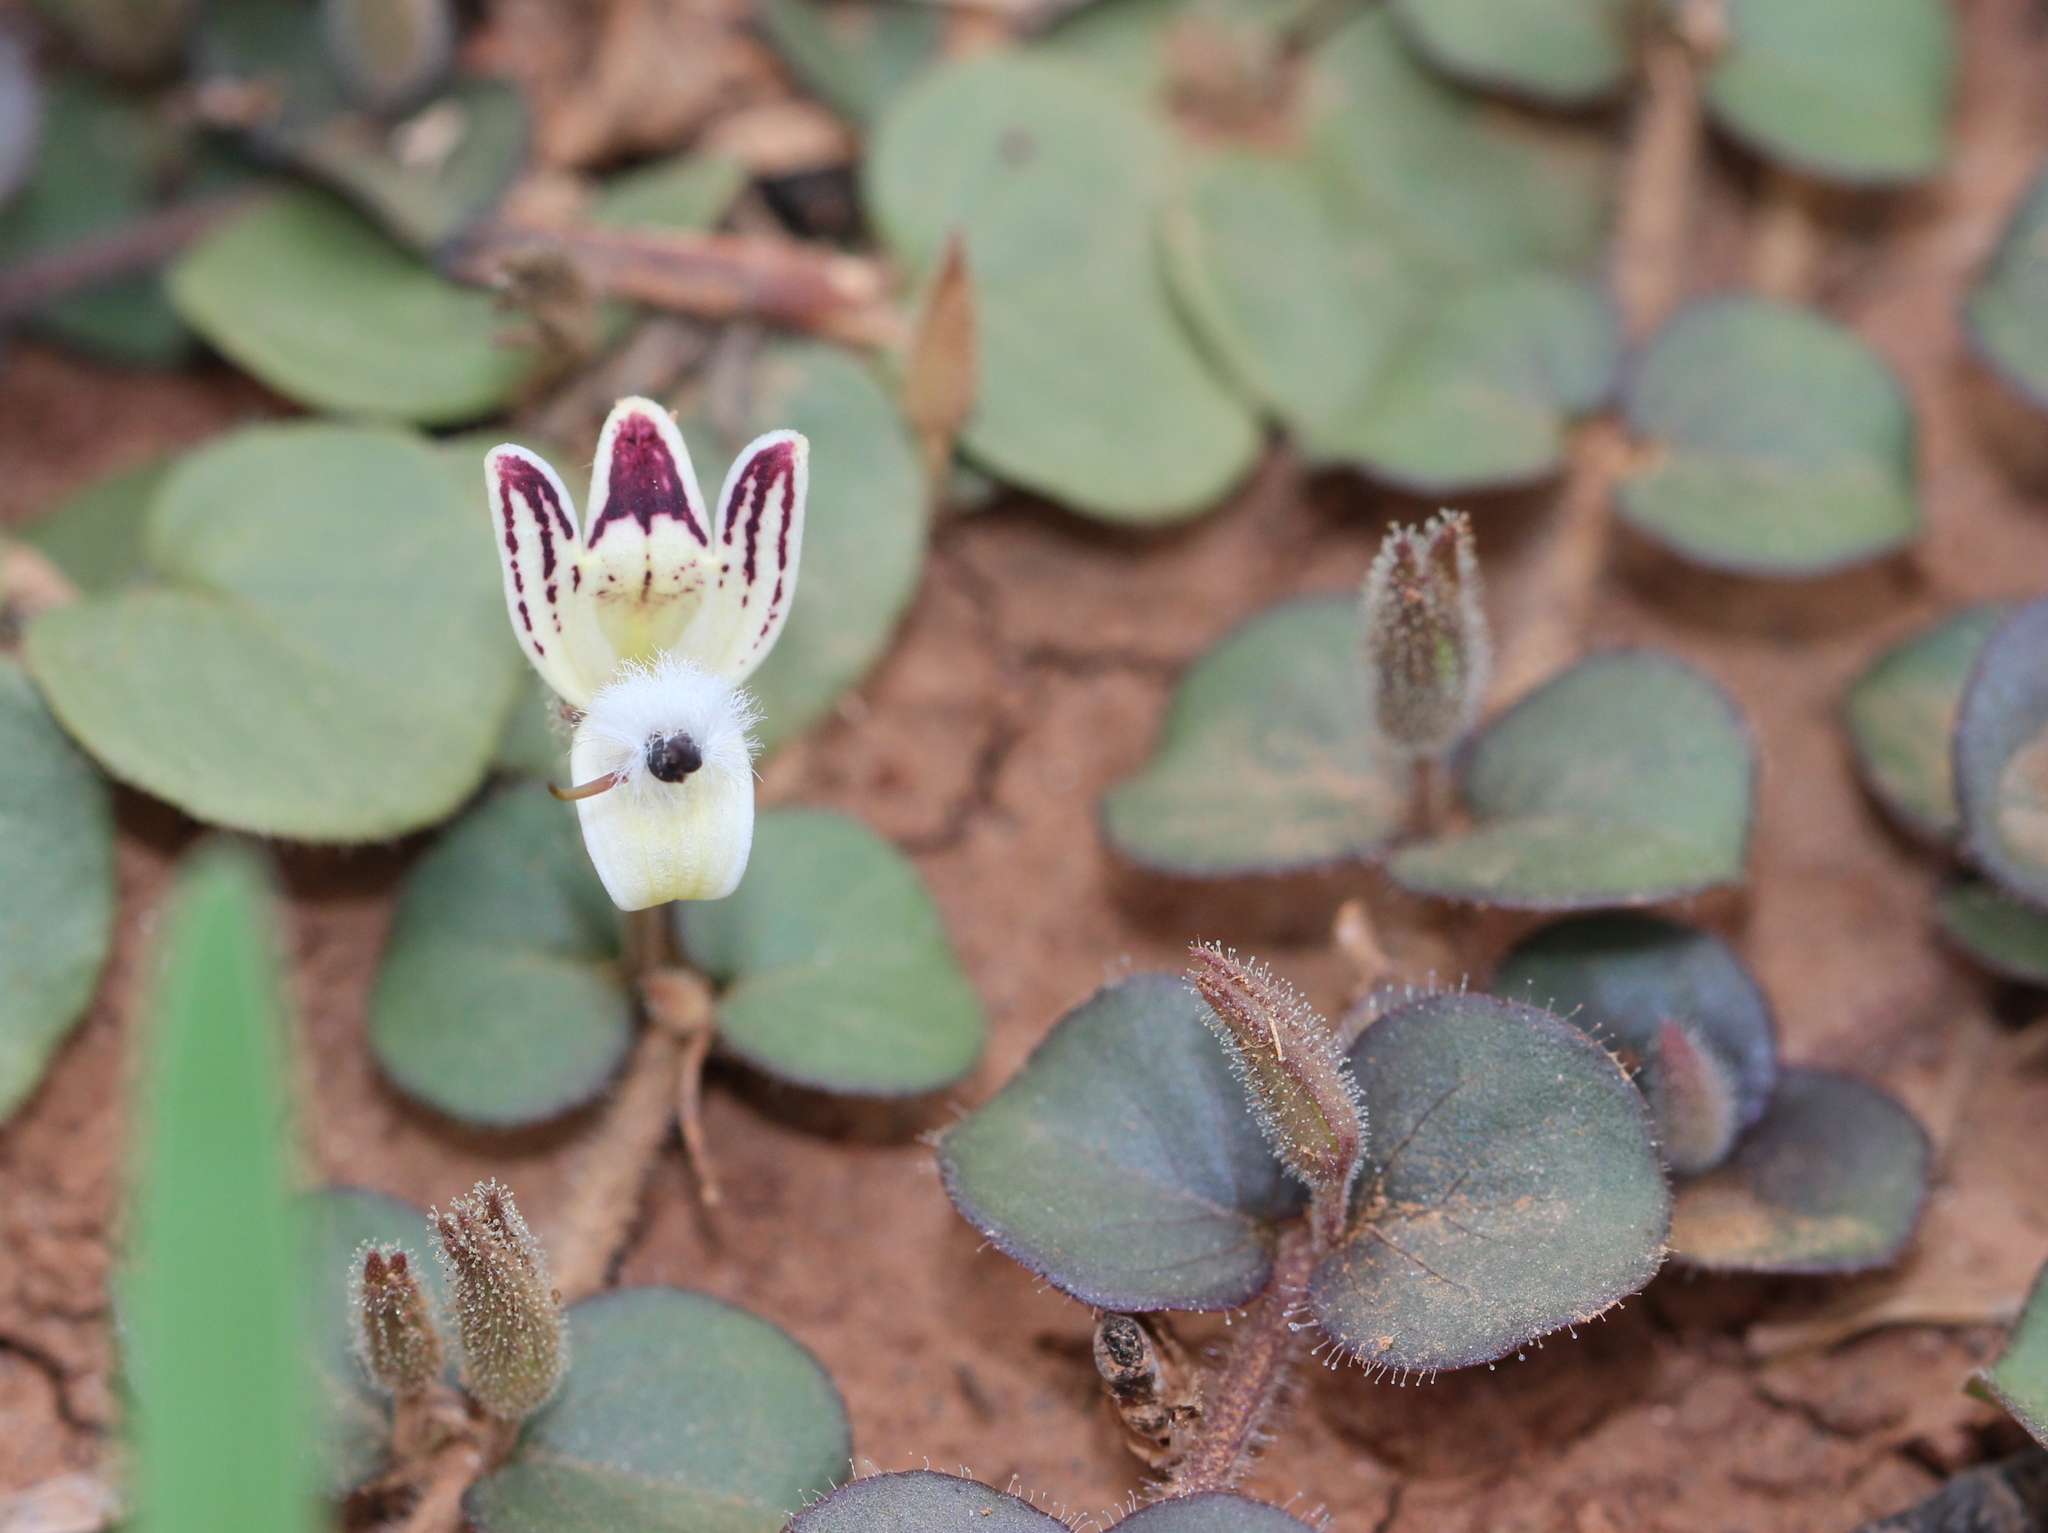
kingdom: Plantae
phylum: Tracheophyta
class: Magnoliopsida
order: Lamiales
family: Acanthaceae
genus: Andrographis
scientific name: Andrographis serpyllifolia
